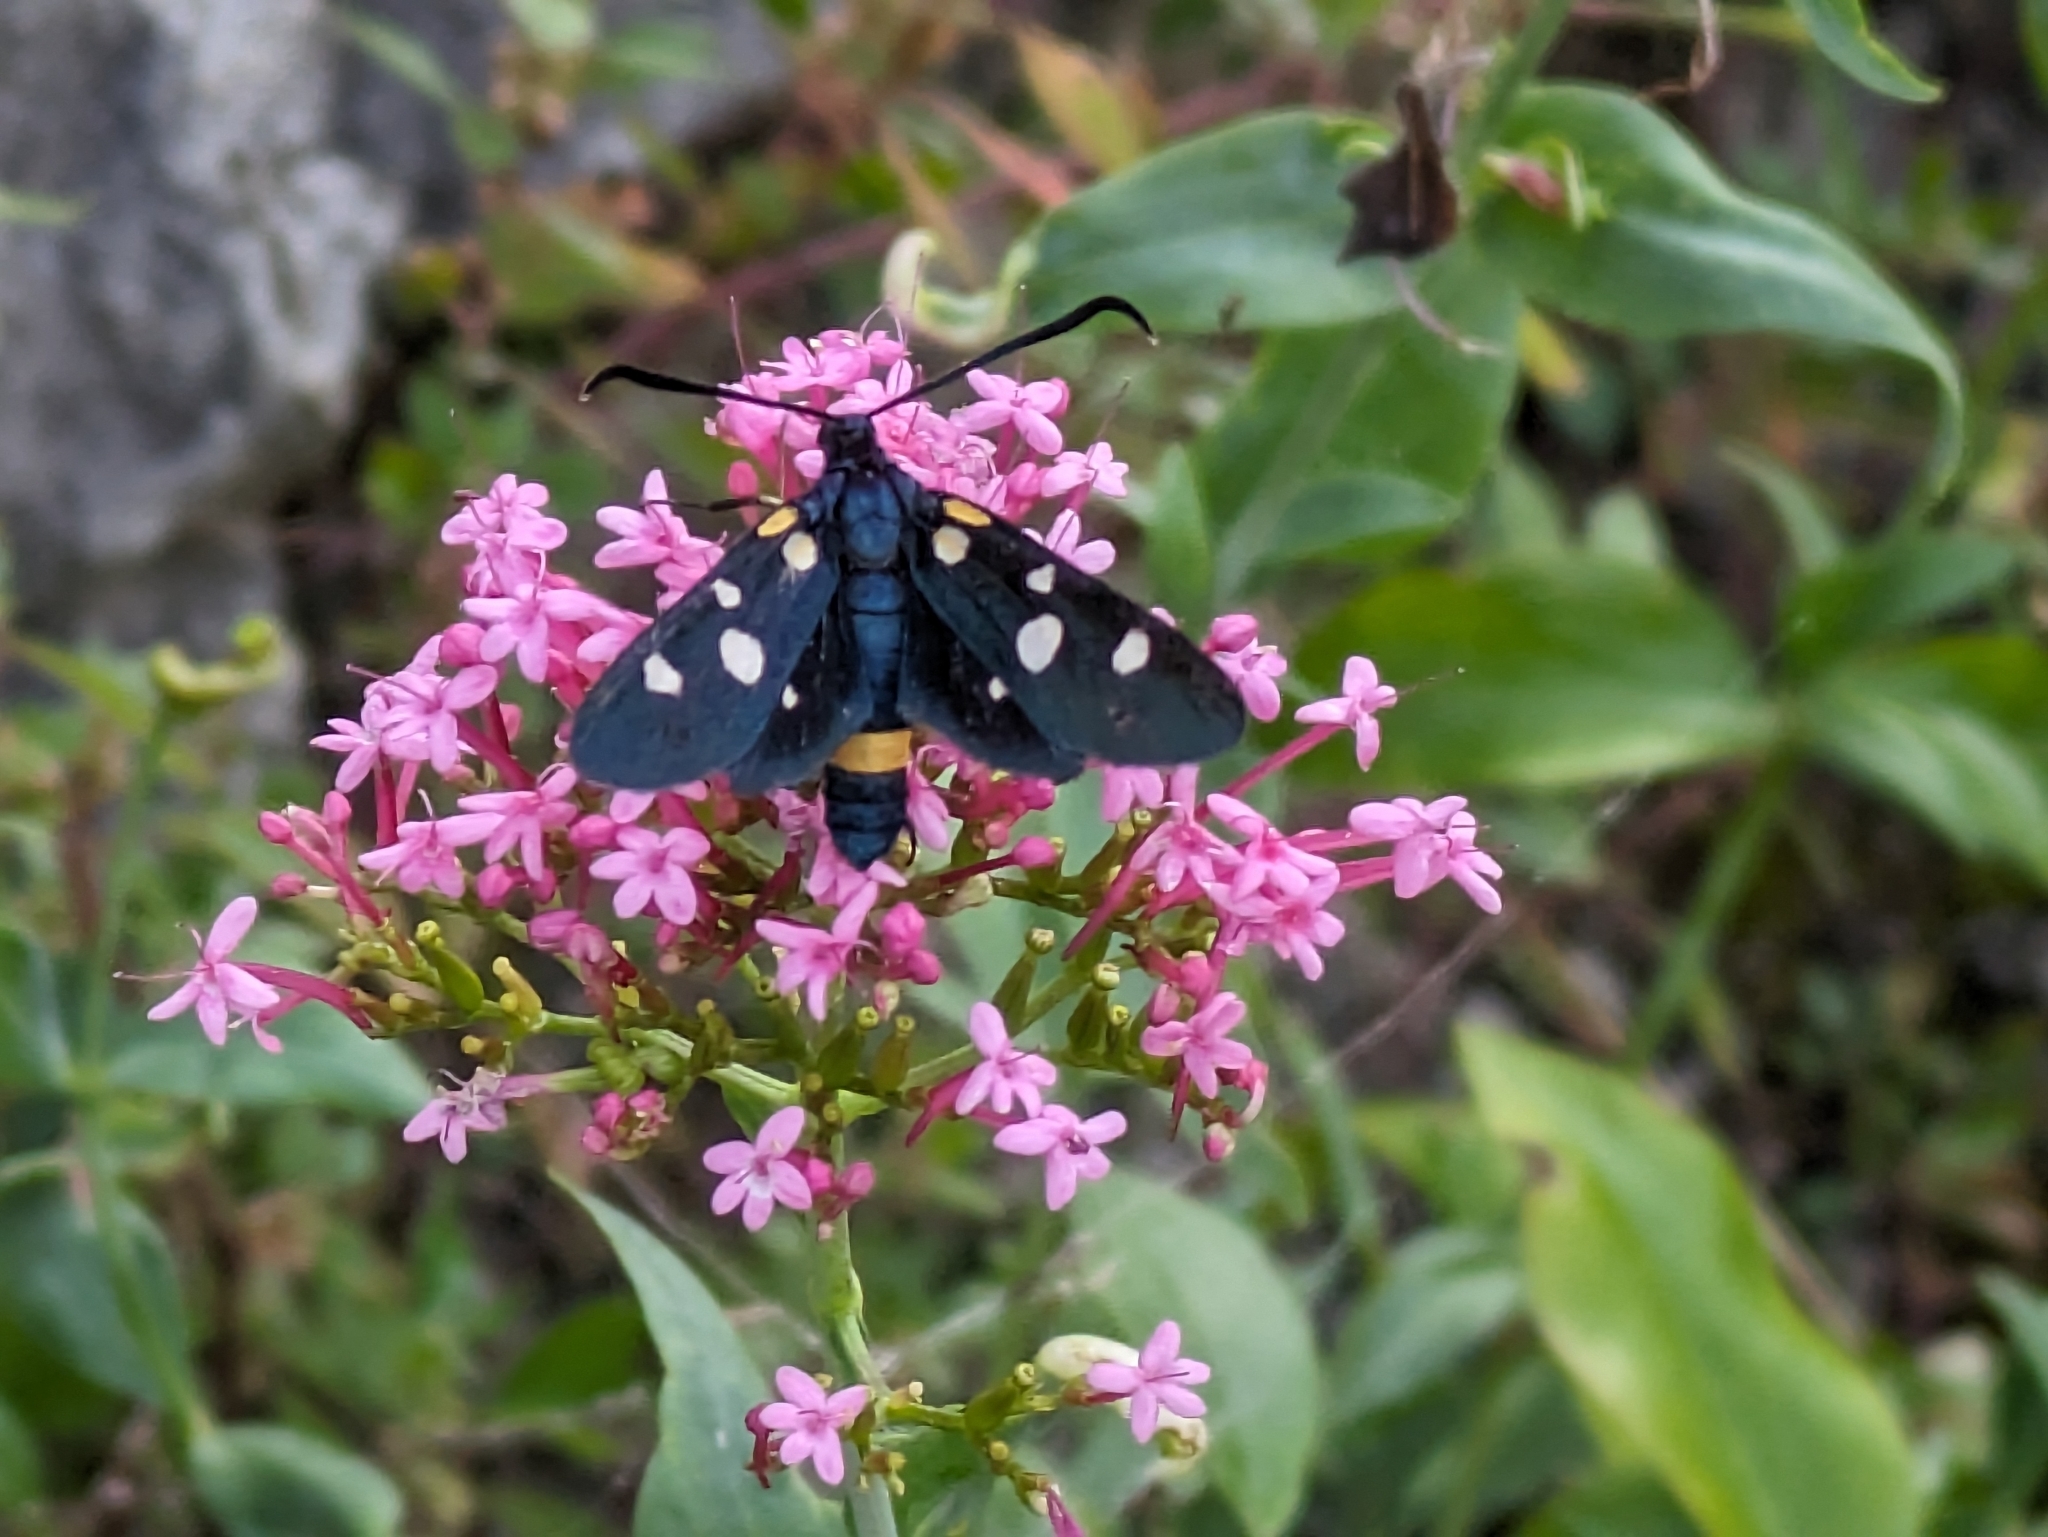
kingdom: Animalia
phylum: Arthropoda
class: Insecta
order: Lepidoptera
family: Zygaenidae
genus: Zygaena
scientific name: Zygaena ephialtes
